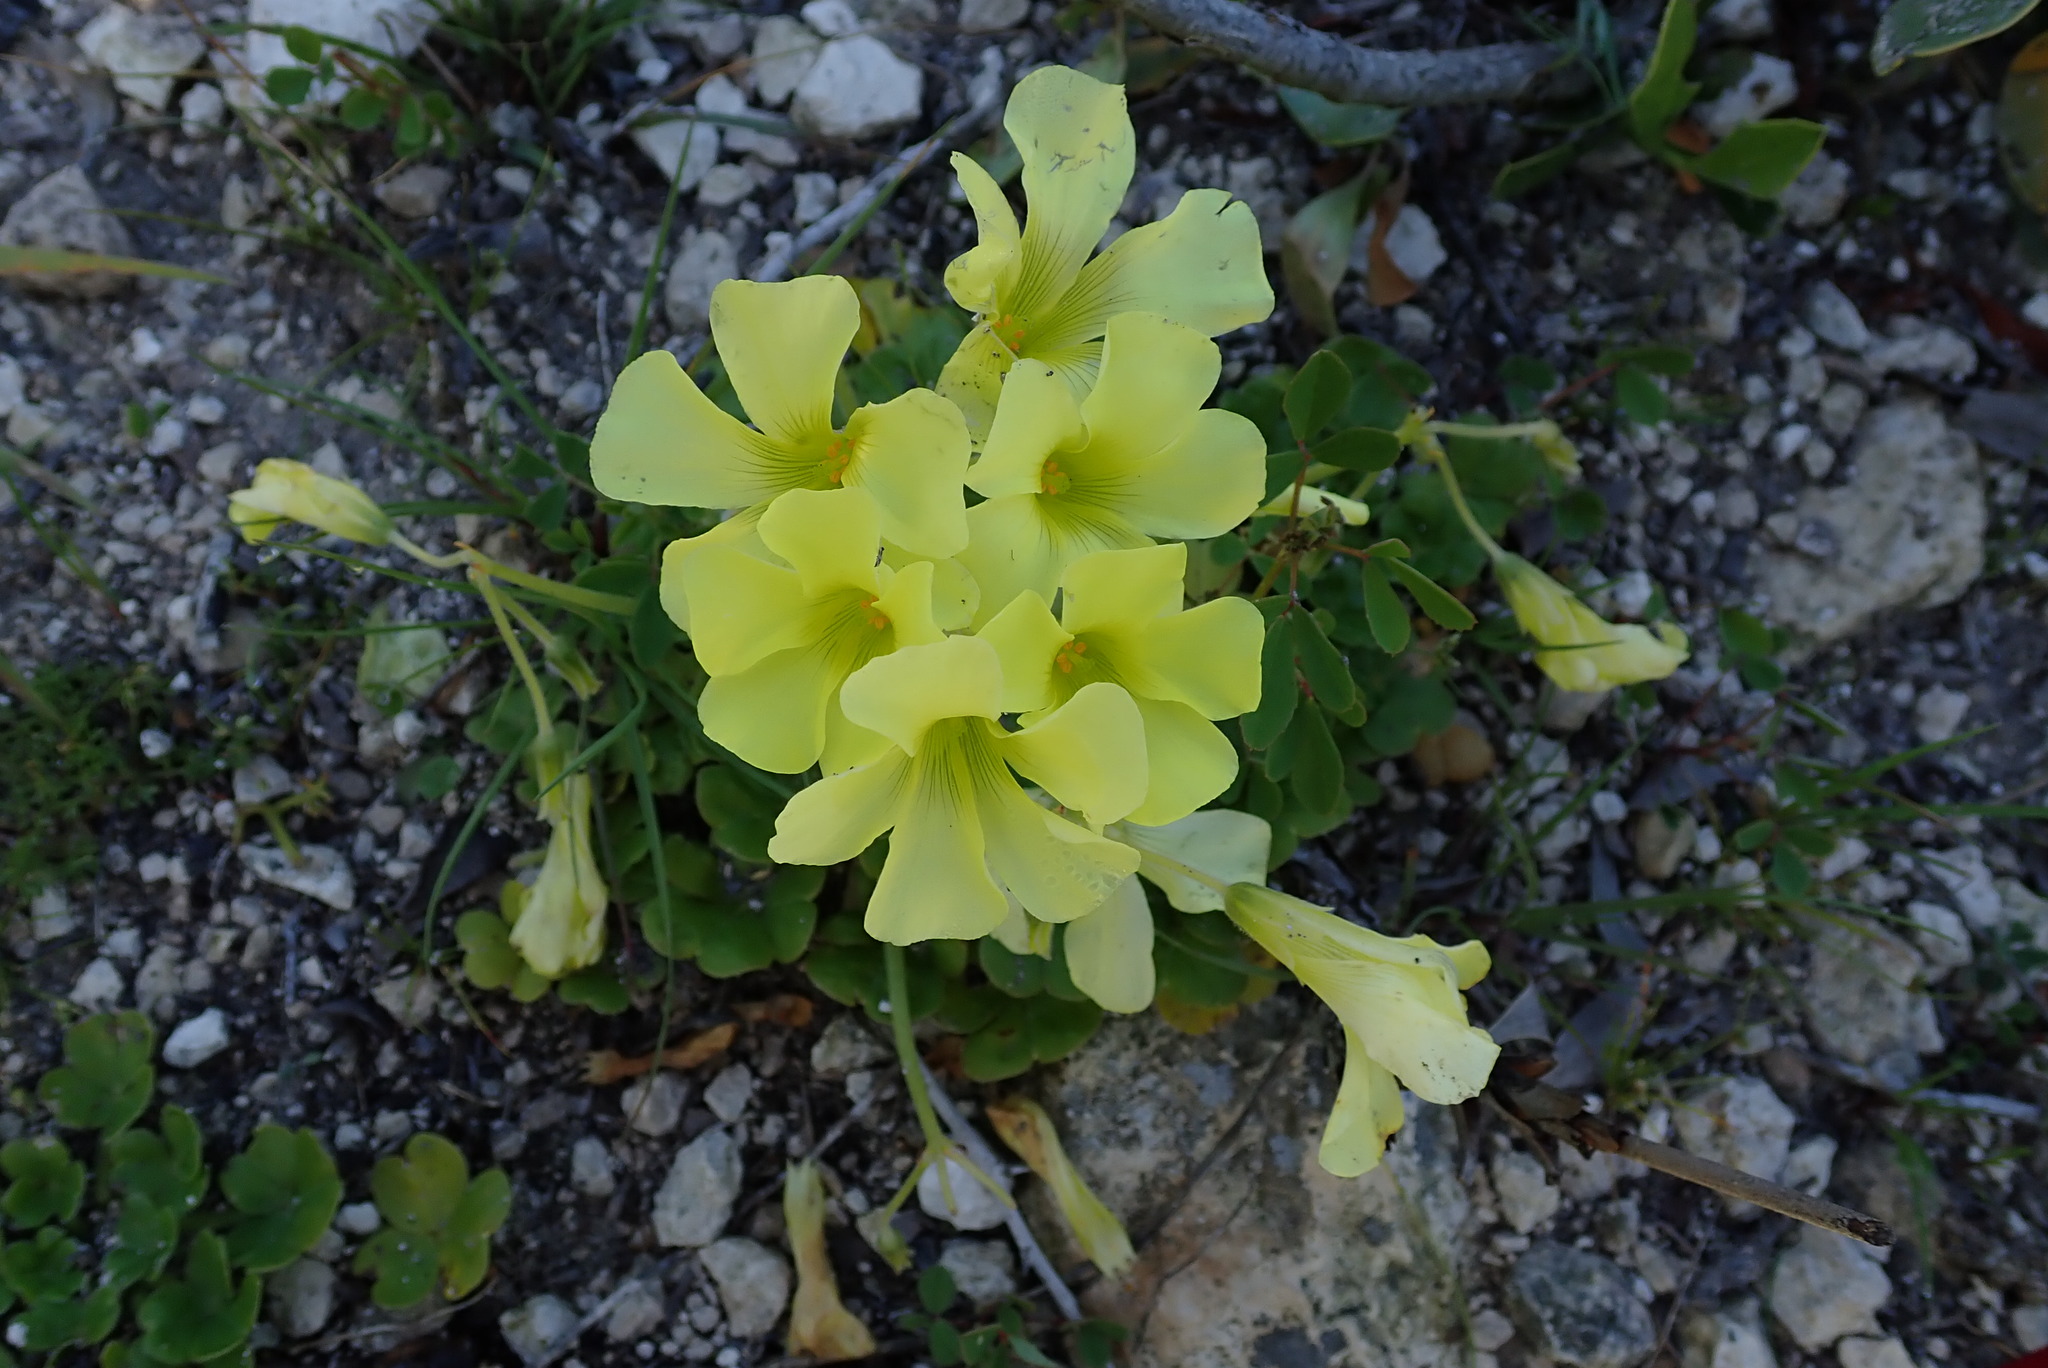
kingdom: Plantae
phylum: Tracheophyta
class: Magnoliopsida
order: Oxalidales
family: Oxalidaceae
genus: Oxalis
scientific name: Oxalis compressa
